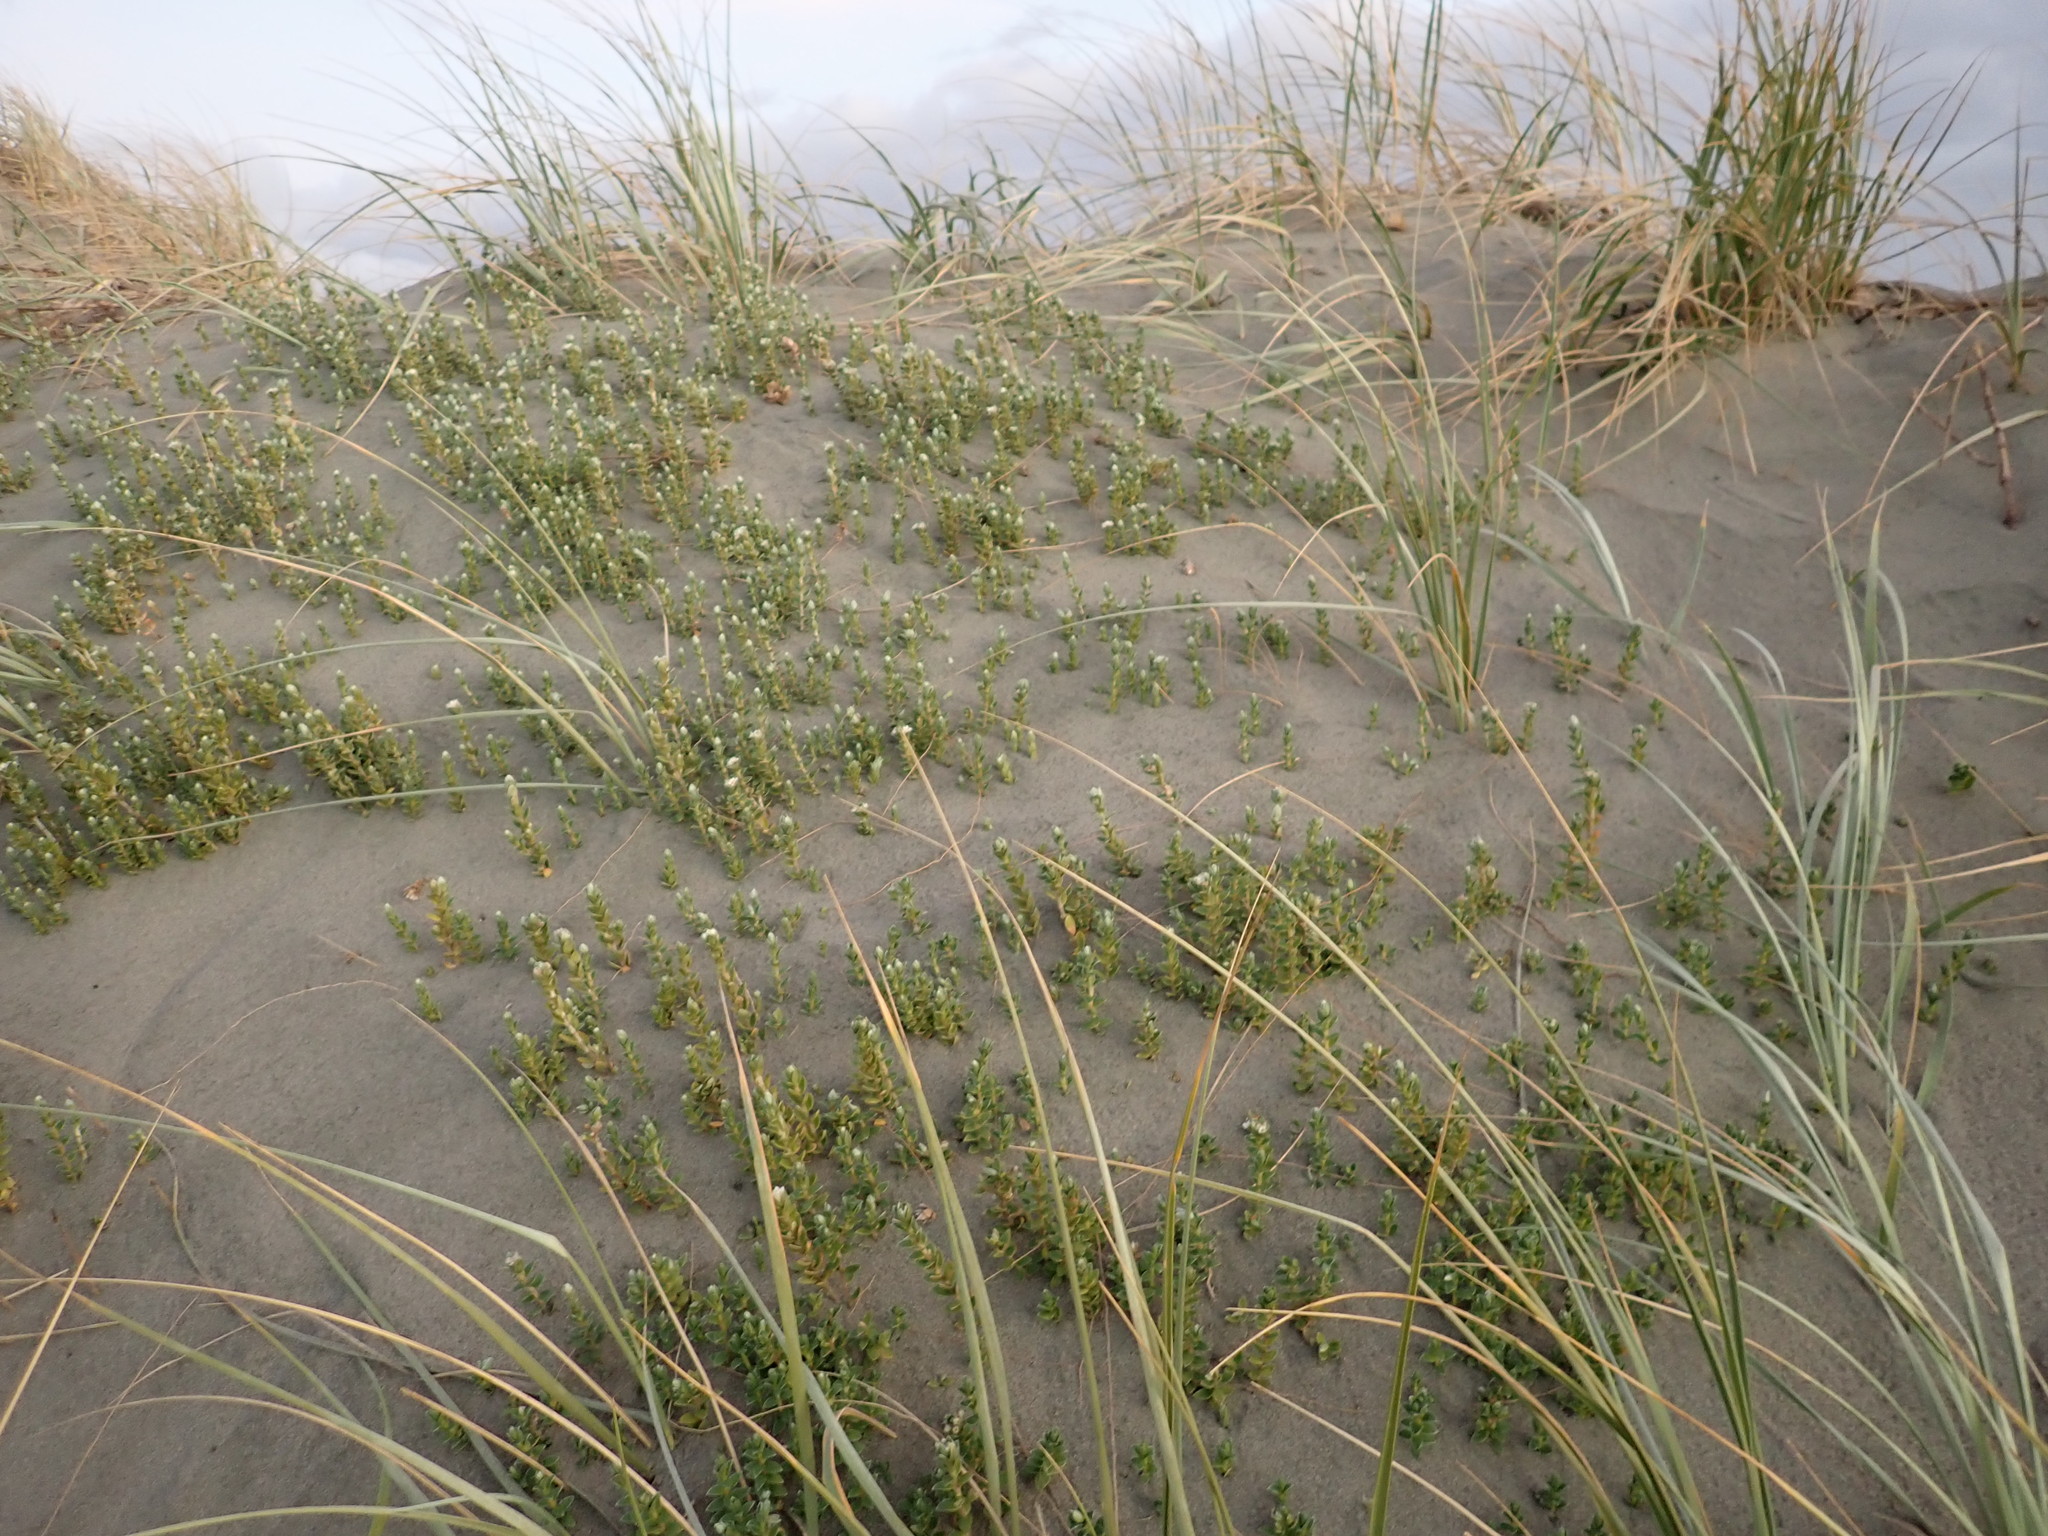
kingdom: Plantae
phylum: Tracheophyta
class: Magnoliopsida
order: Malvales
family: Thymelaeaceae
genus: Pimelea
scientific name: Pimelea villosa
